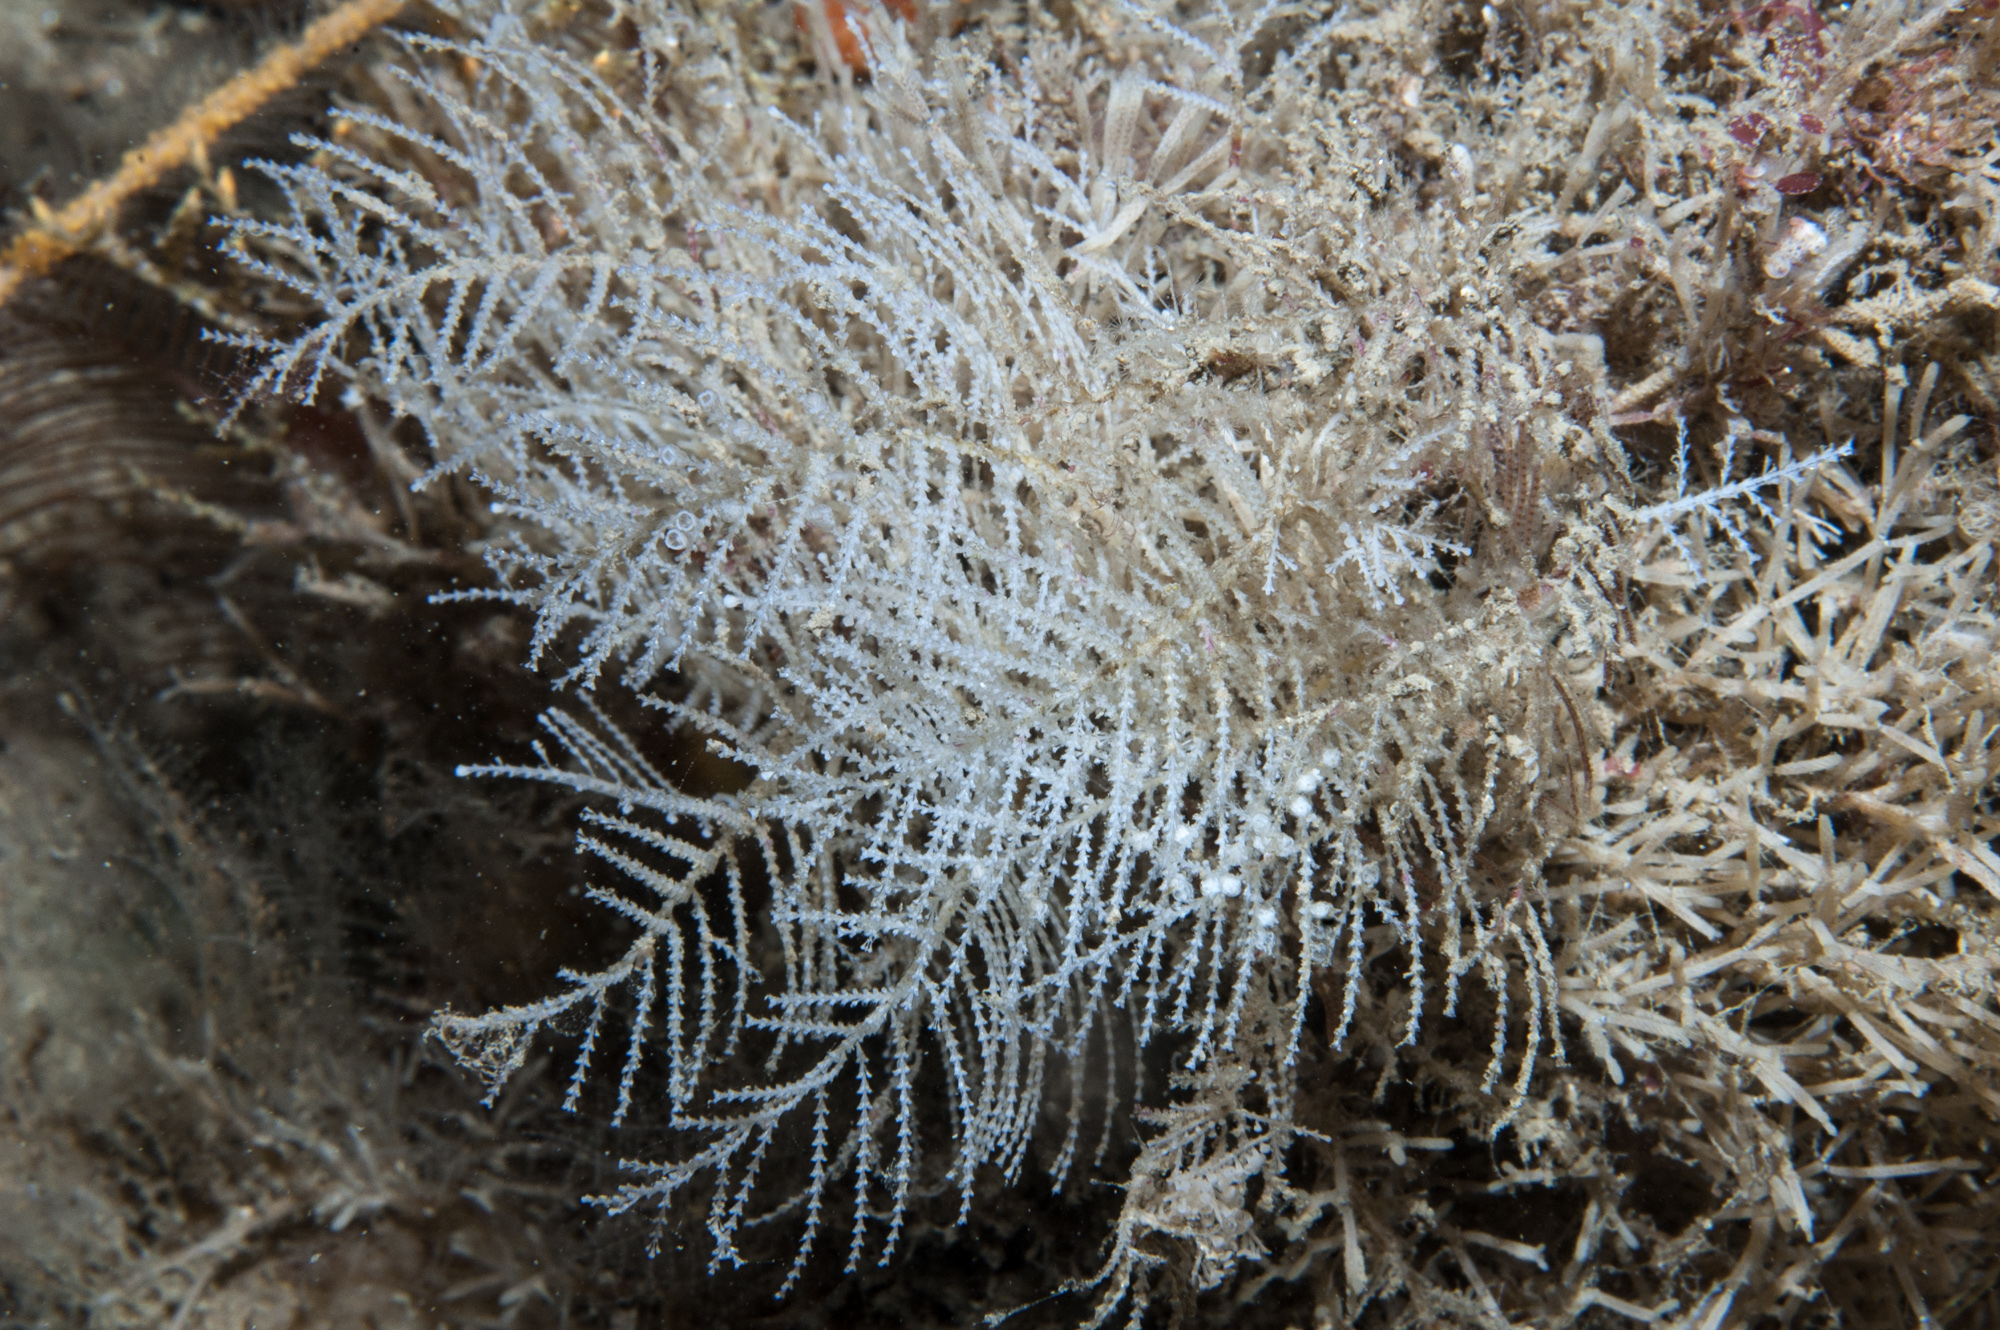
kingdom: Animalia
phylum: Cnidaria
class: Hydrozoa
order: Leptothecata
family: Sertulariidae
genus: Diphasia
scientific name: Diphasia fallax
